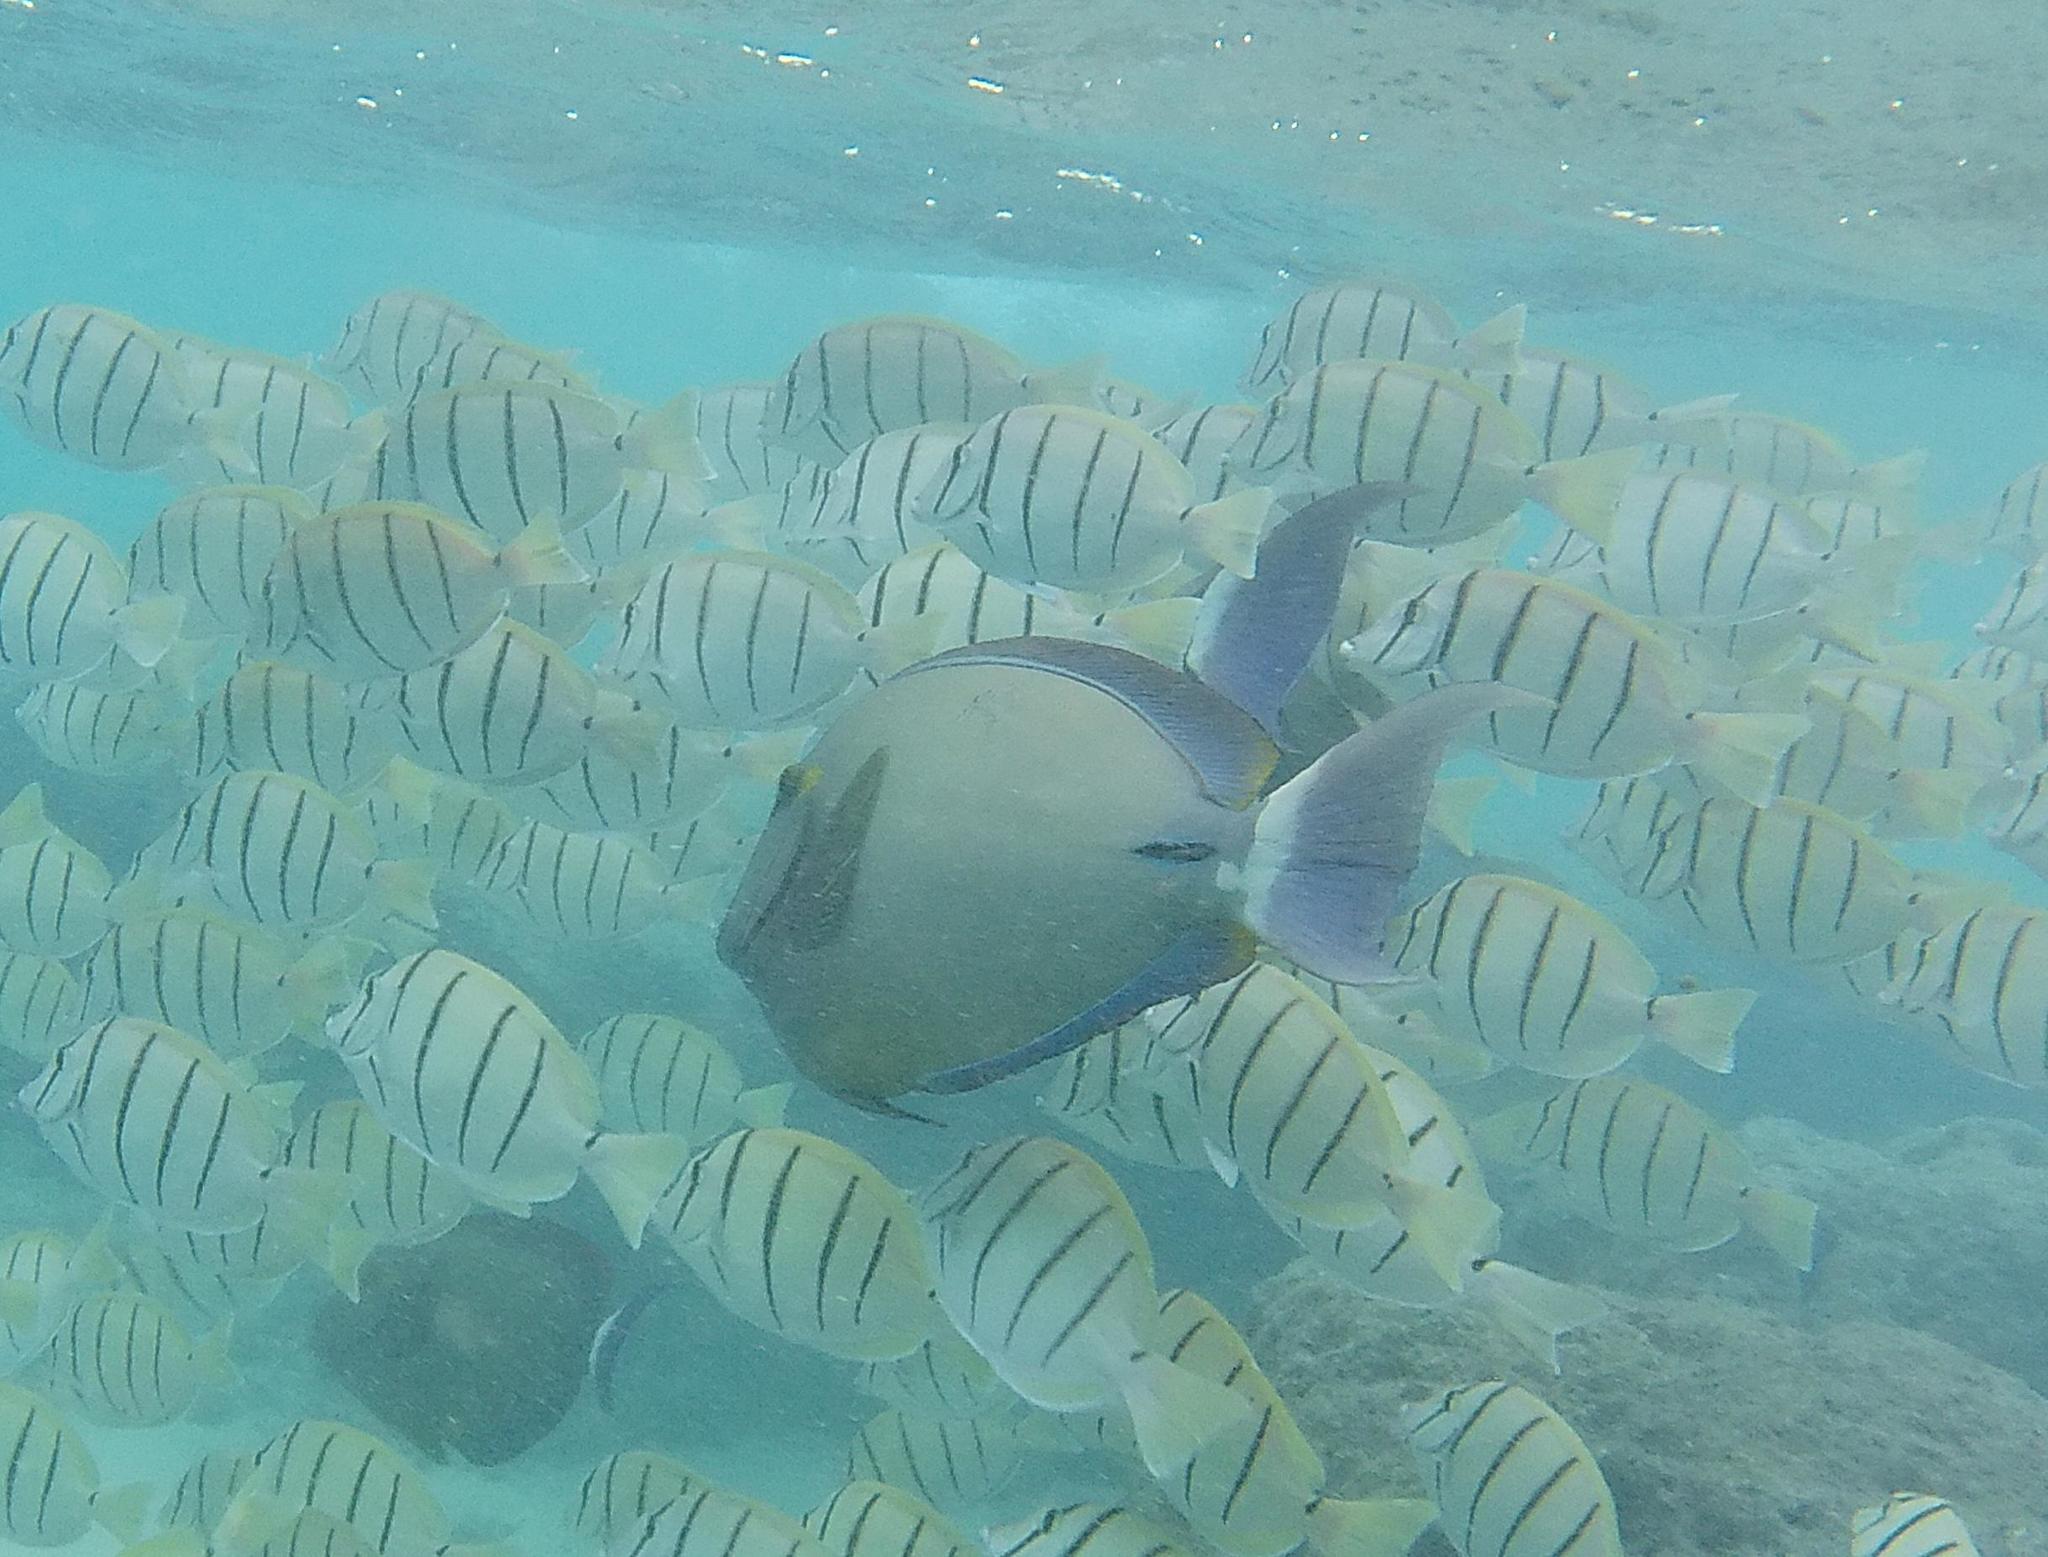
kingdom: Animalia
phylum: Chordata
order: Perciformes
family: Acanthuridae
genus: Acanthurus
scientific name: Acanthurus blochii
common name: Blue-banded pualu
